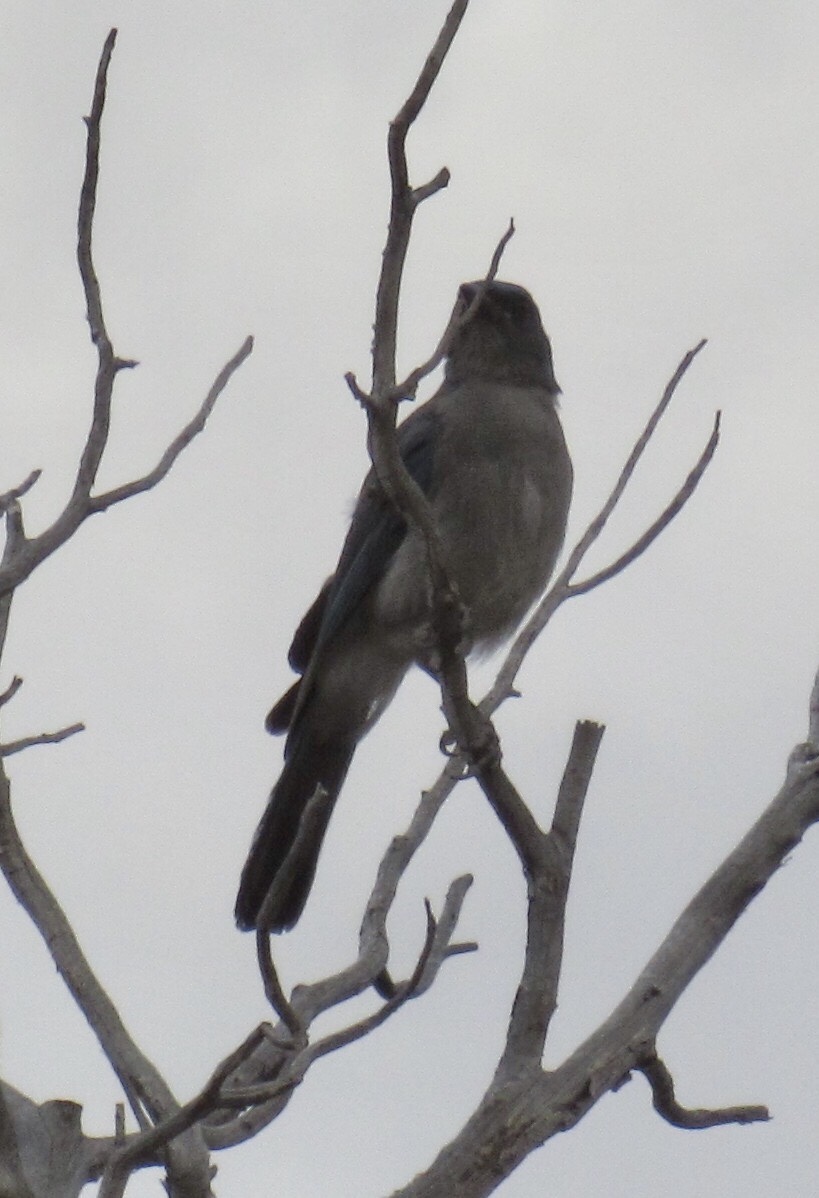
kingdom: Animalia
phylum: Chordata
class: Aves
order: Passeriformes
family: Corvidae
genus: Aphelocoma
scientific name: Aphelocoma wollweberi
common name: Mexican jay
